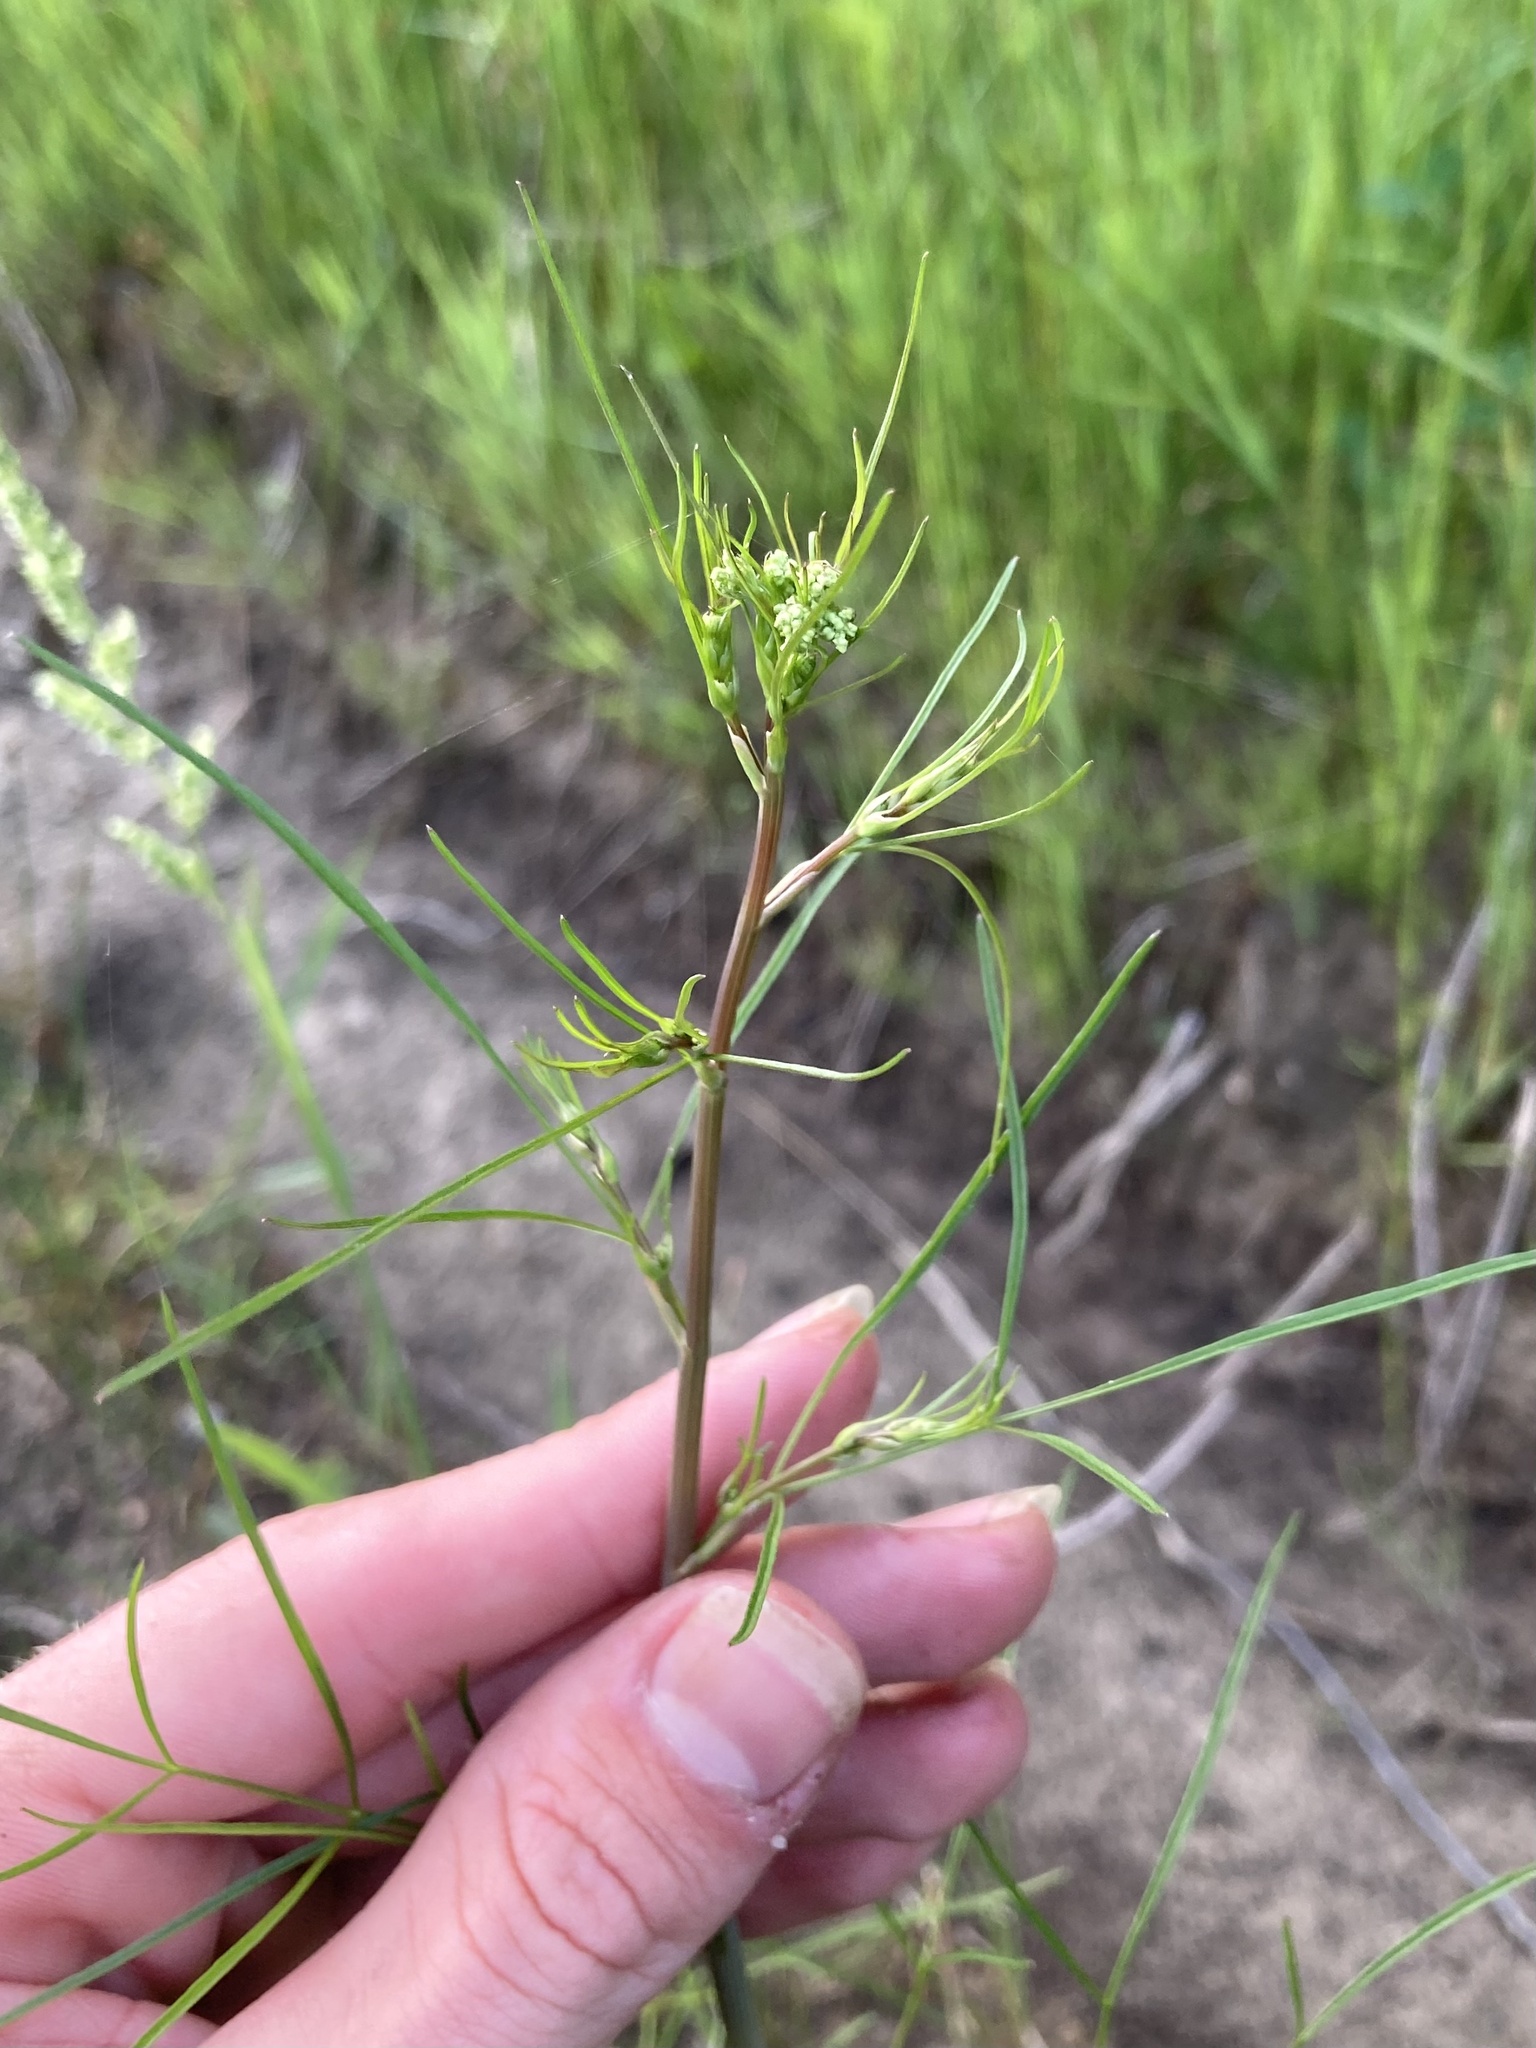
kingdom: Plantae
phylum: Tracheophyta
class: Magnoliopsida
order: Apiales
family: Apiaceae
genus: Cicuta
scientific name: Cicuta bulbifera
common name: Bulb-bearing water-hemlock
